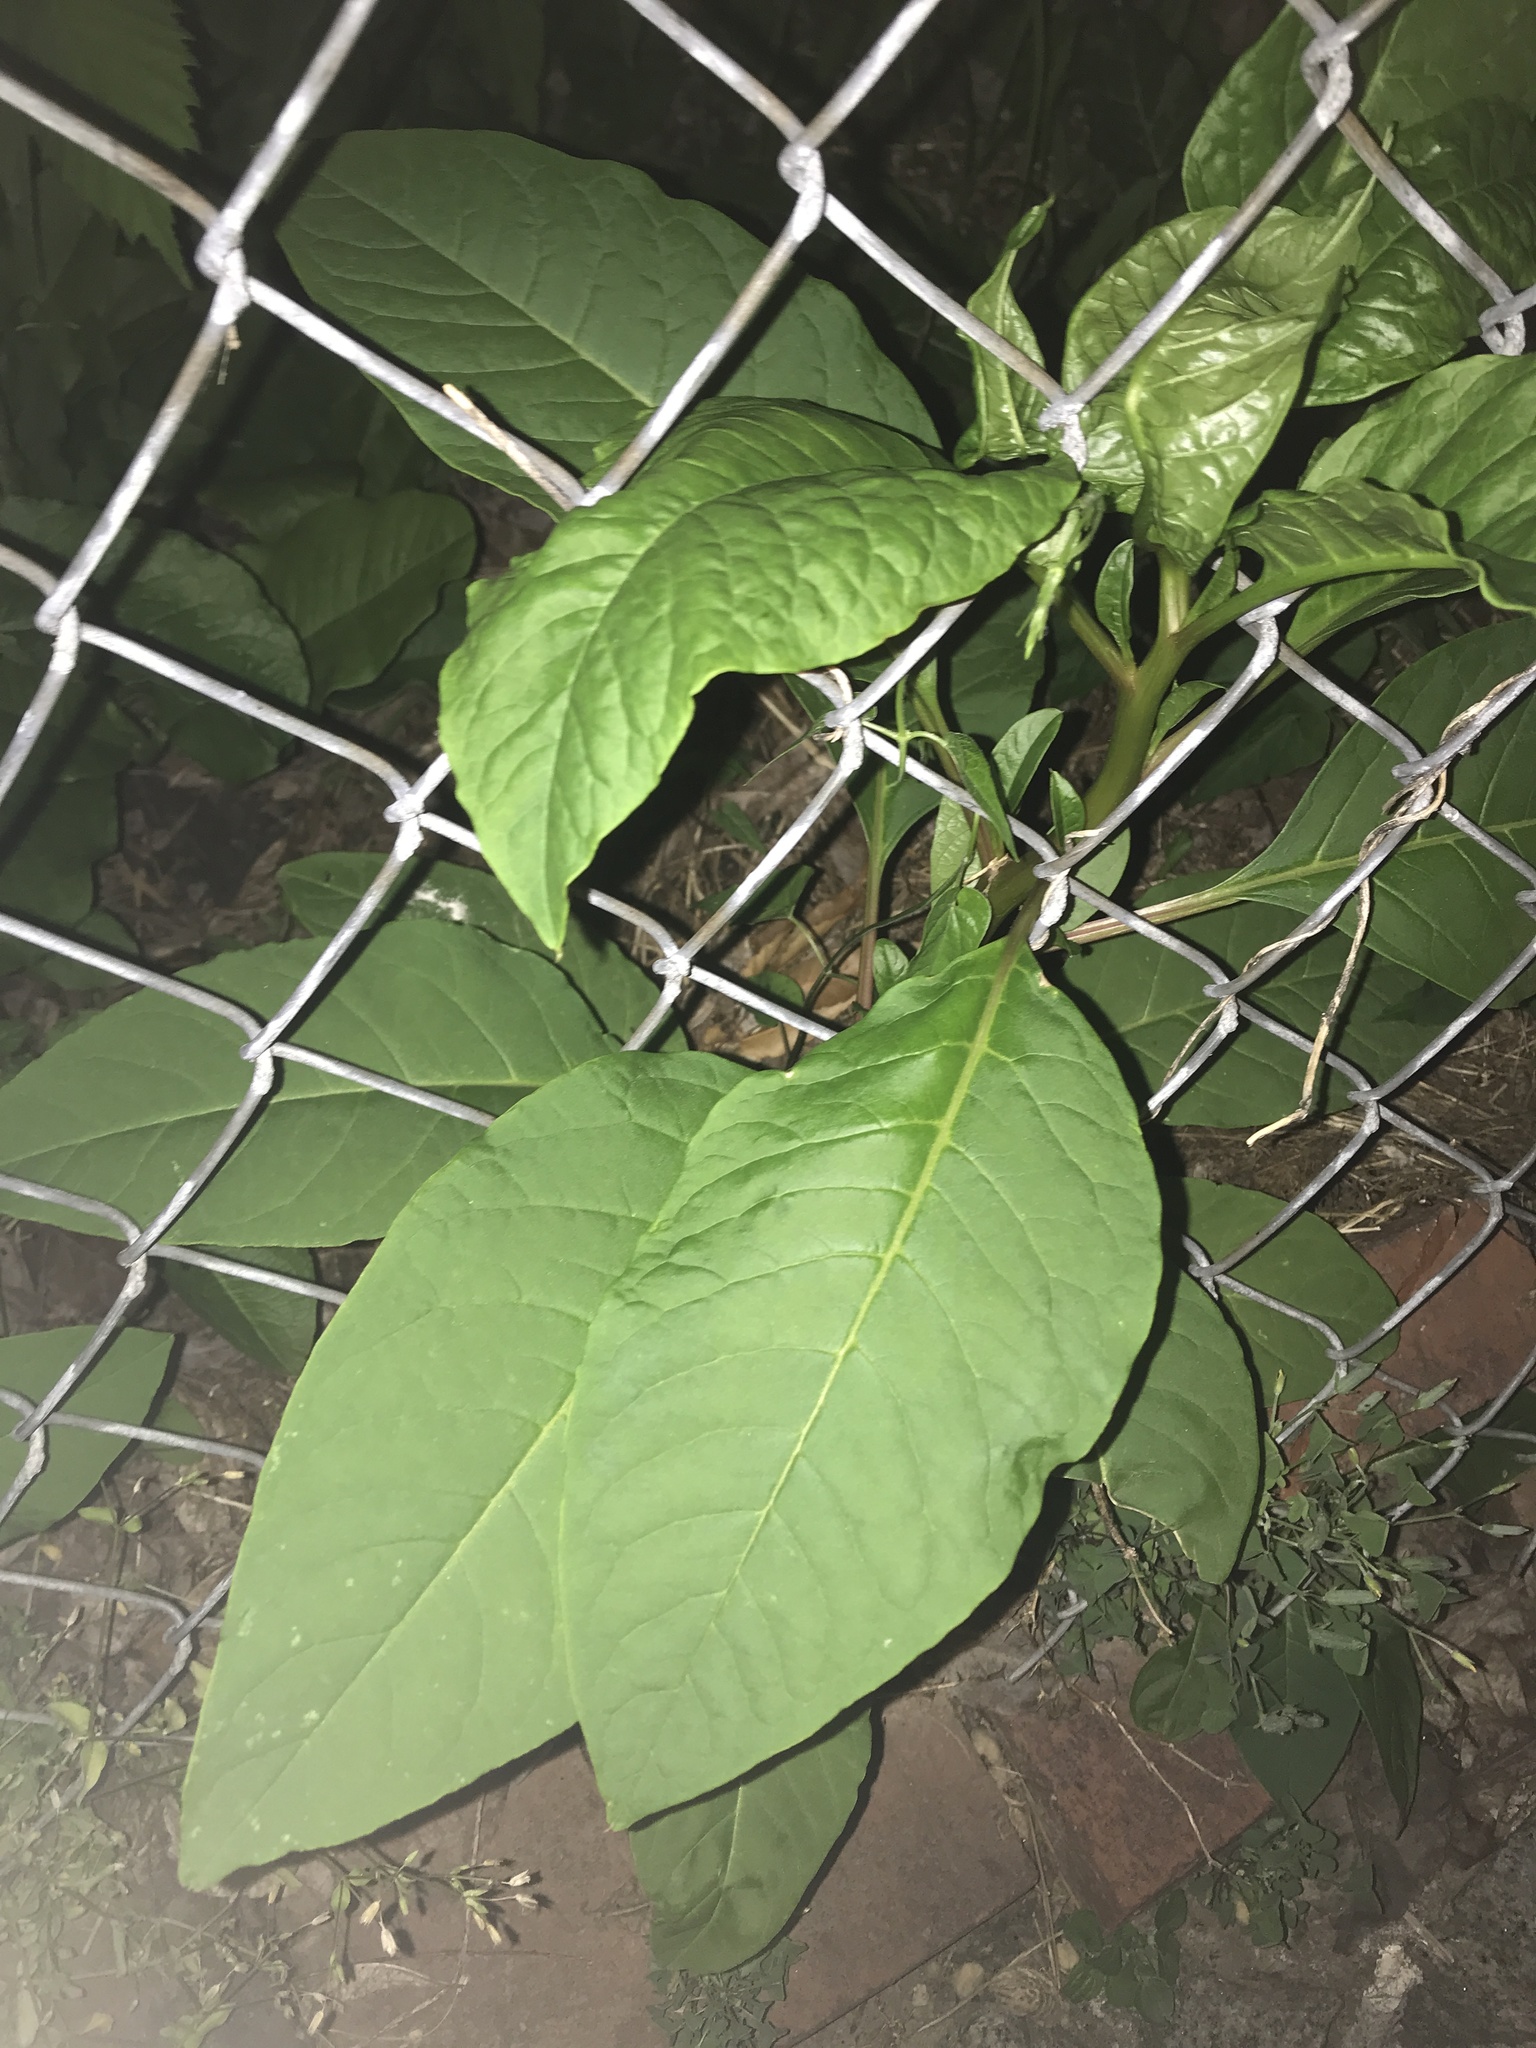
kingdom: Plantae
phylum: Tracheophyta
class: Magnoliopsida
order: Caryophyllales
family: Phytolaccaceae
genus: Phytolacca
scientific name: Phytolacca americana
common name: American pokeweed
